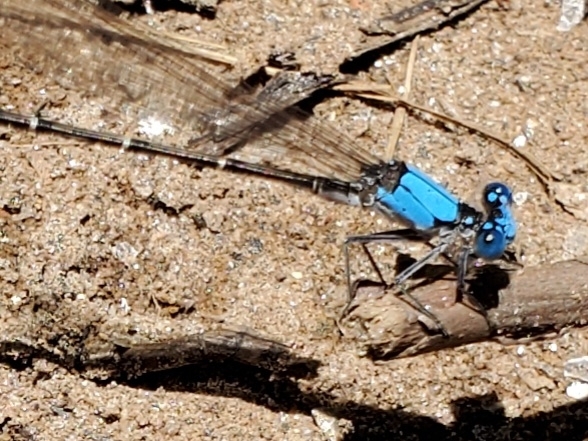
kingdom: Animalia
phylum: Arthropoda
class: Insecta
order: Odonata
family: Coenagrionidae
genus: Argia
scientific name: Argia apicalis
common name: Blue-fronted dancer
